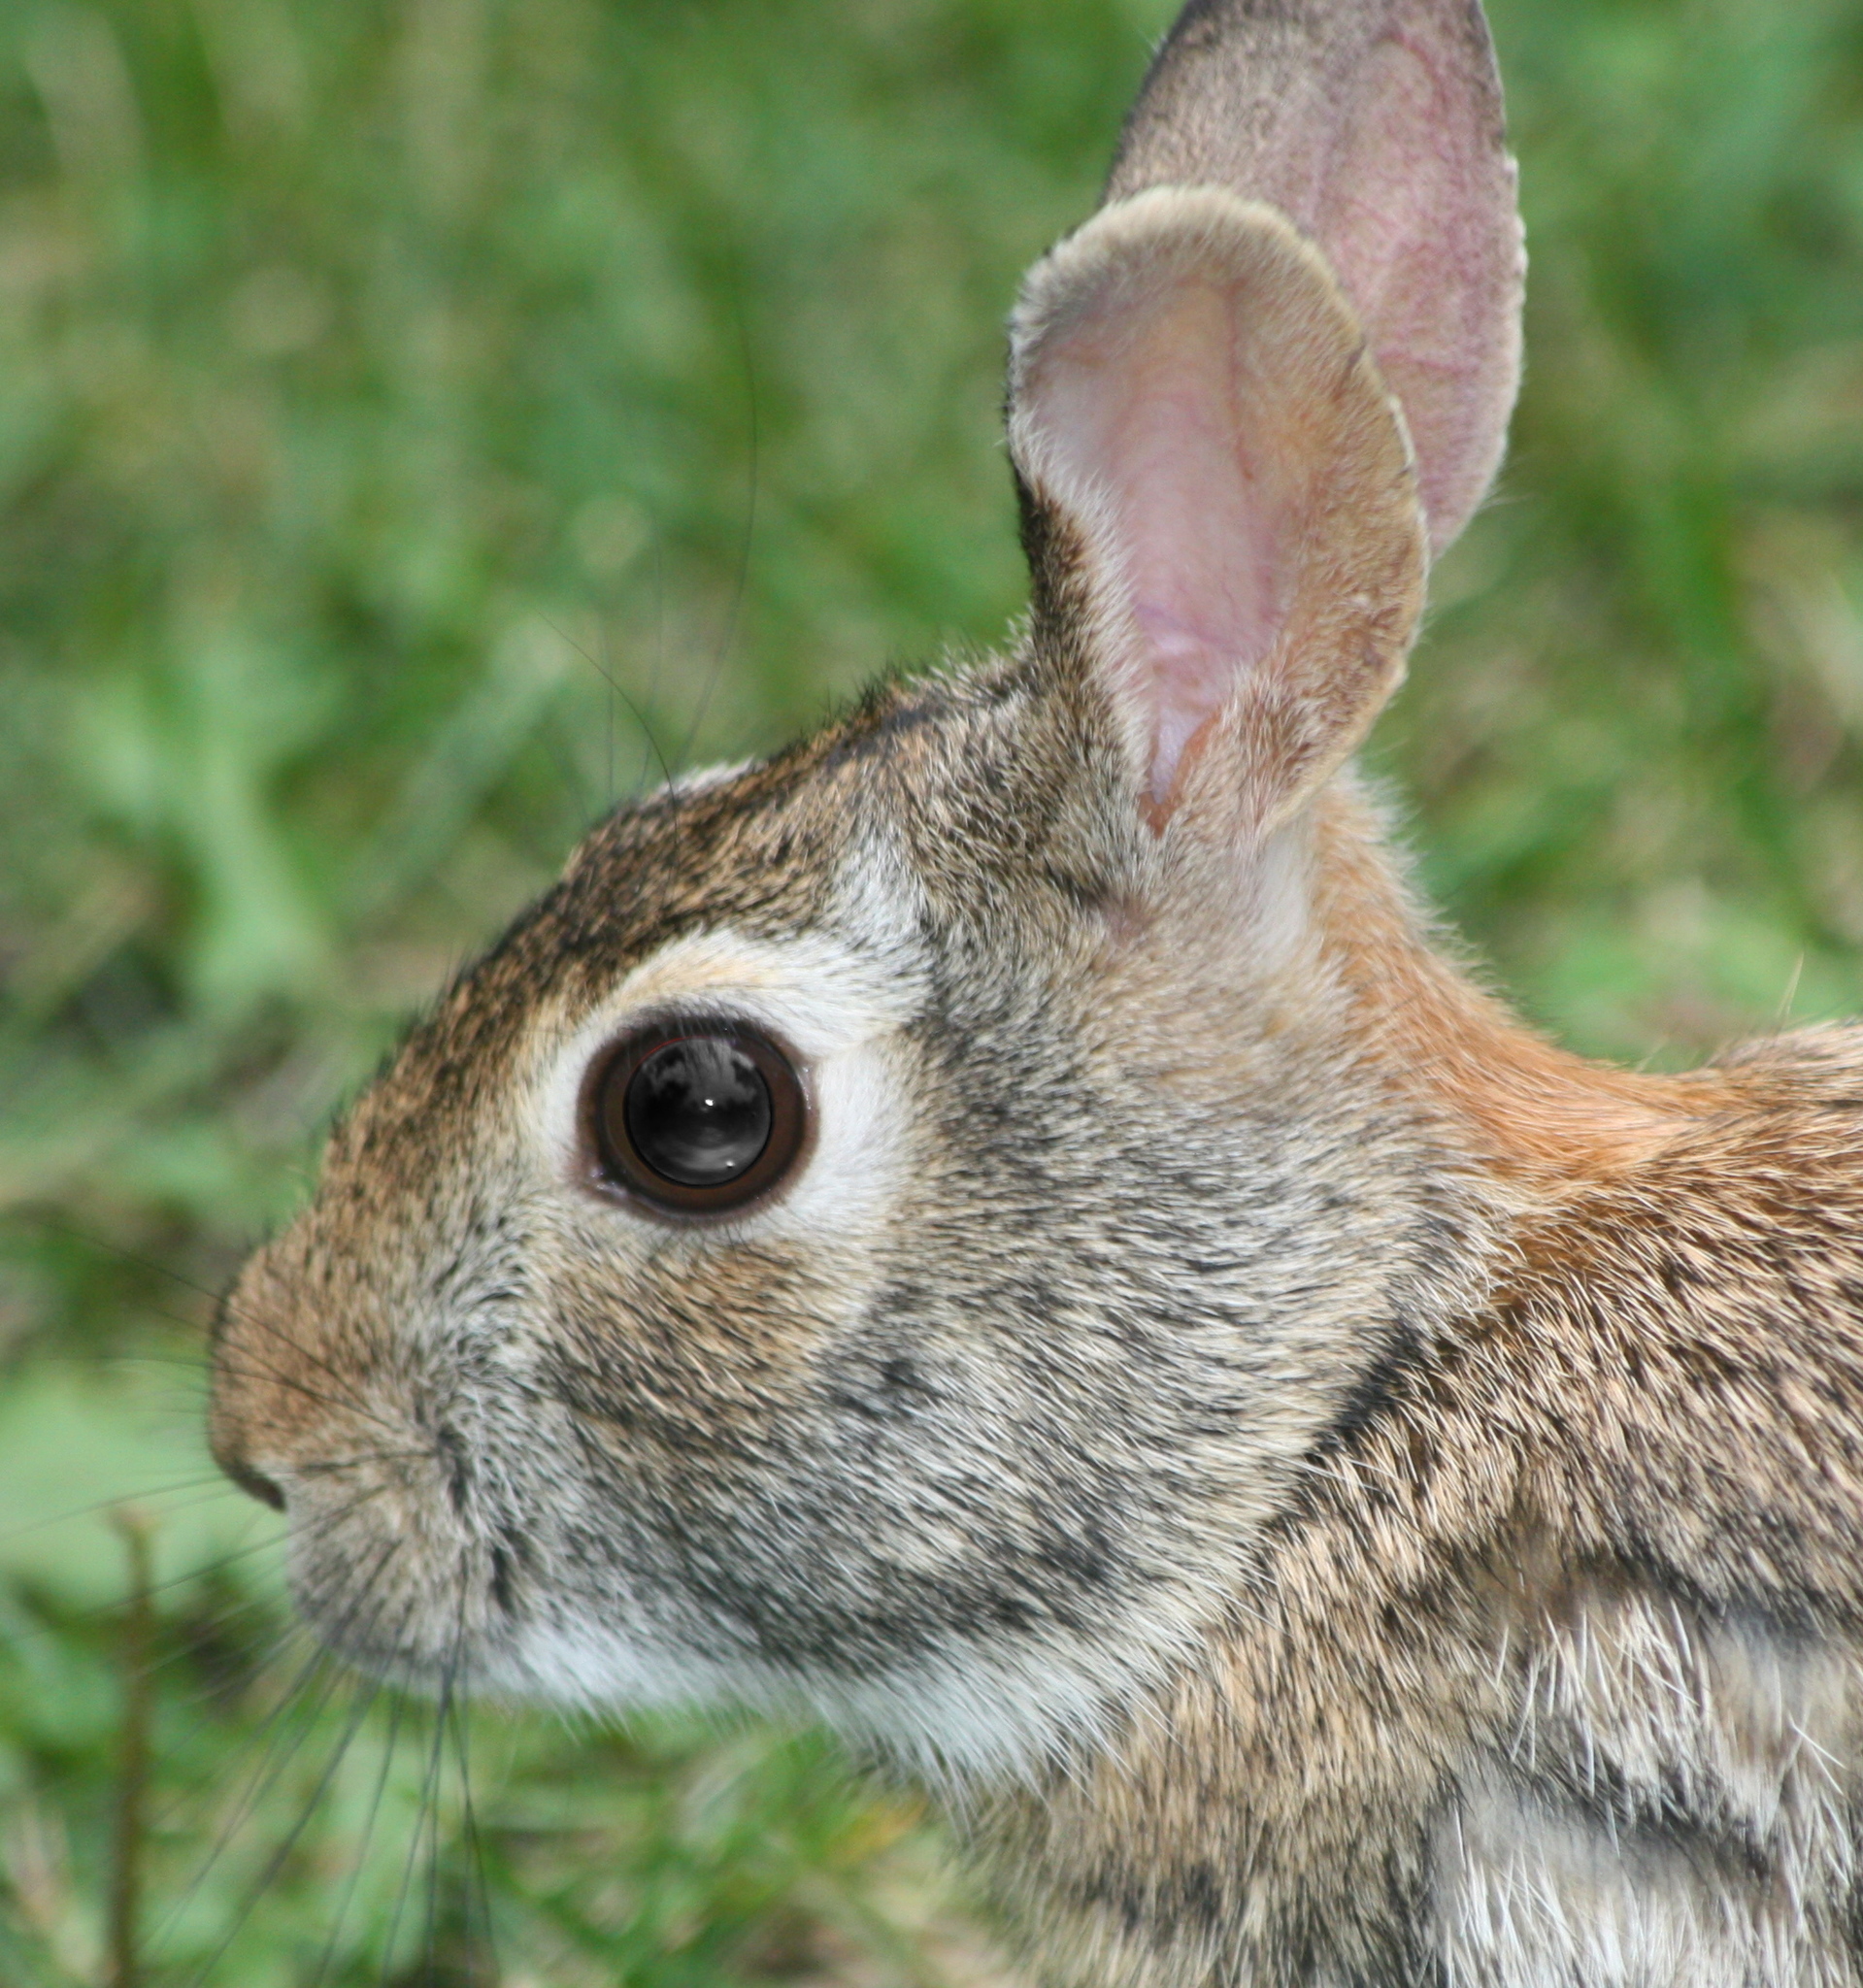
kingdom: Animalia
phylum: Chordata
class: Mammalia
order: Lagomorpha
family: Leporidae
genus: Sylvilagus
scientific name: Sylvilagus floridanus
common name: Eastern cottontail
